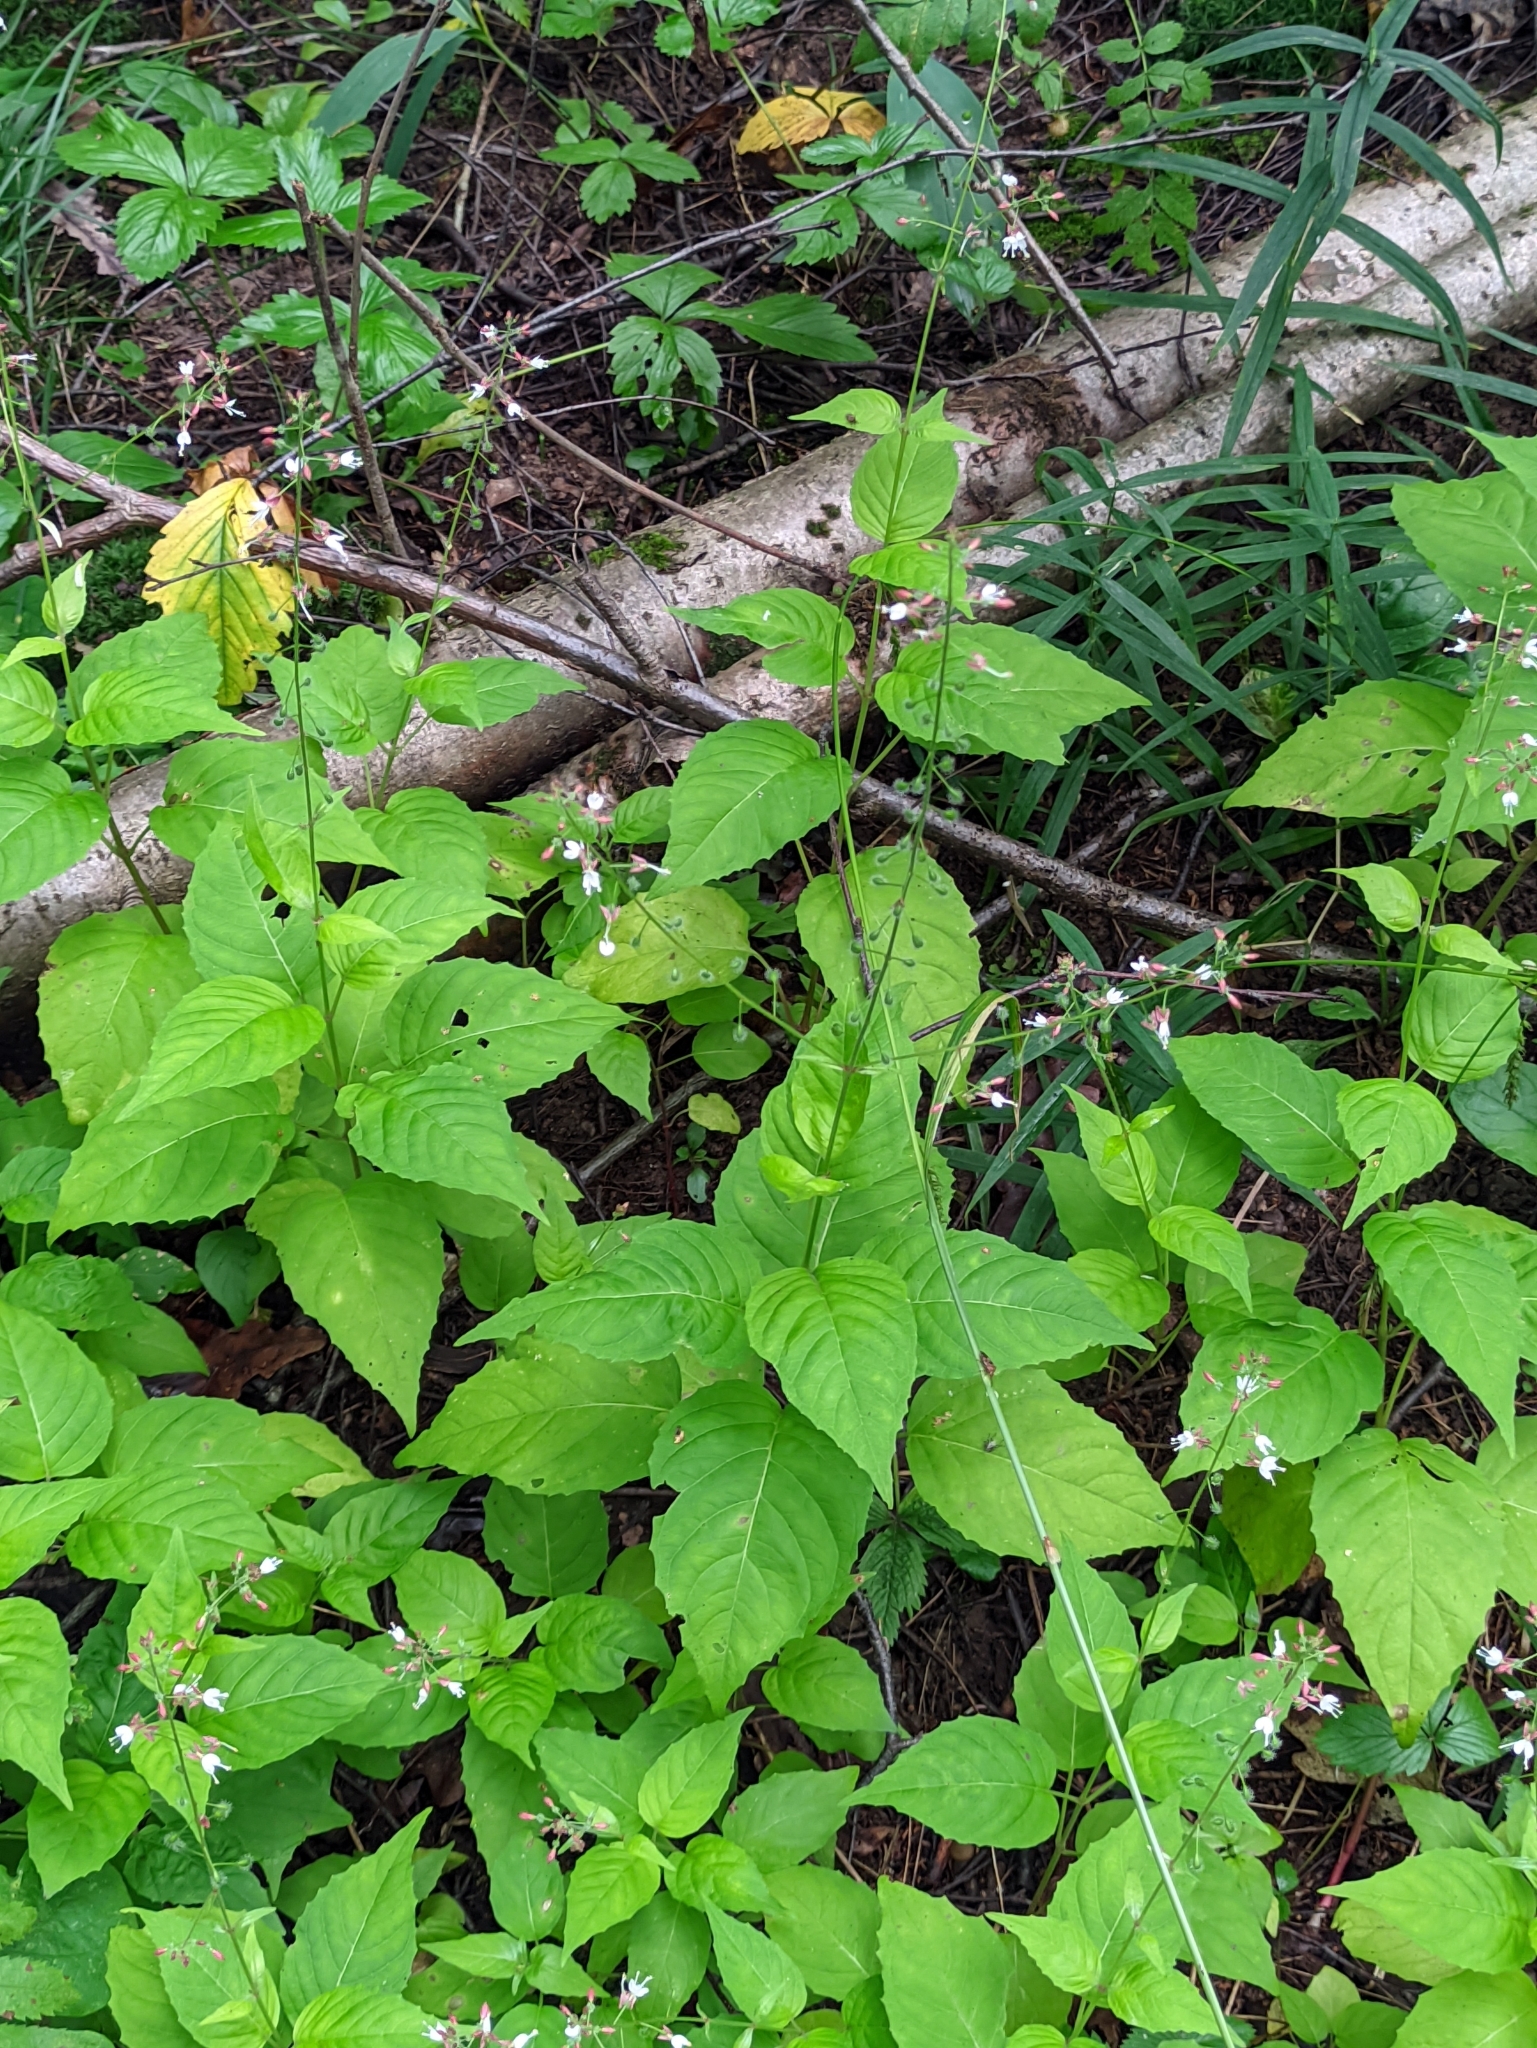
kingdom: Plantae
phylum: Tracheophyta
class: Magnoliopsida
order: Myrtales
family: Onagraceae
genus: Circaea
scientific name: Circaea lutetiana
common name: Enchanter's-nightshade
